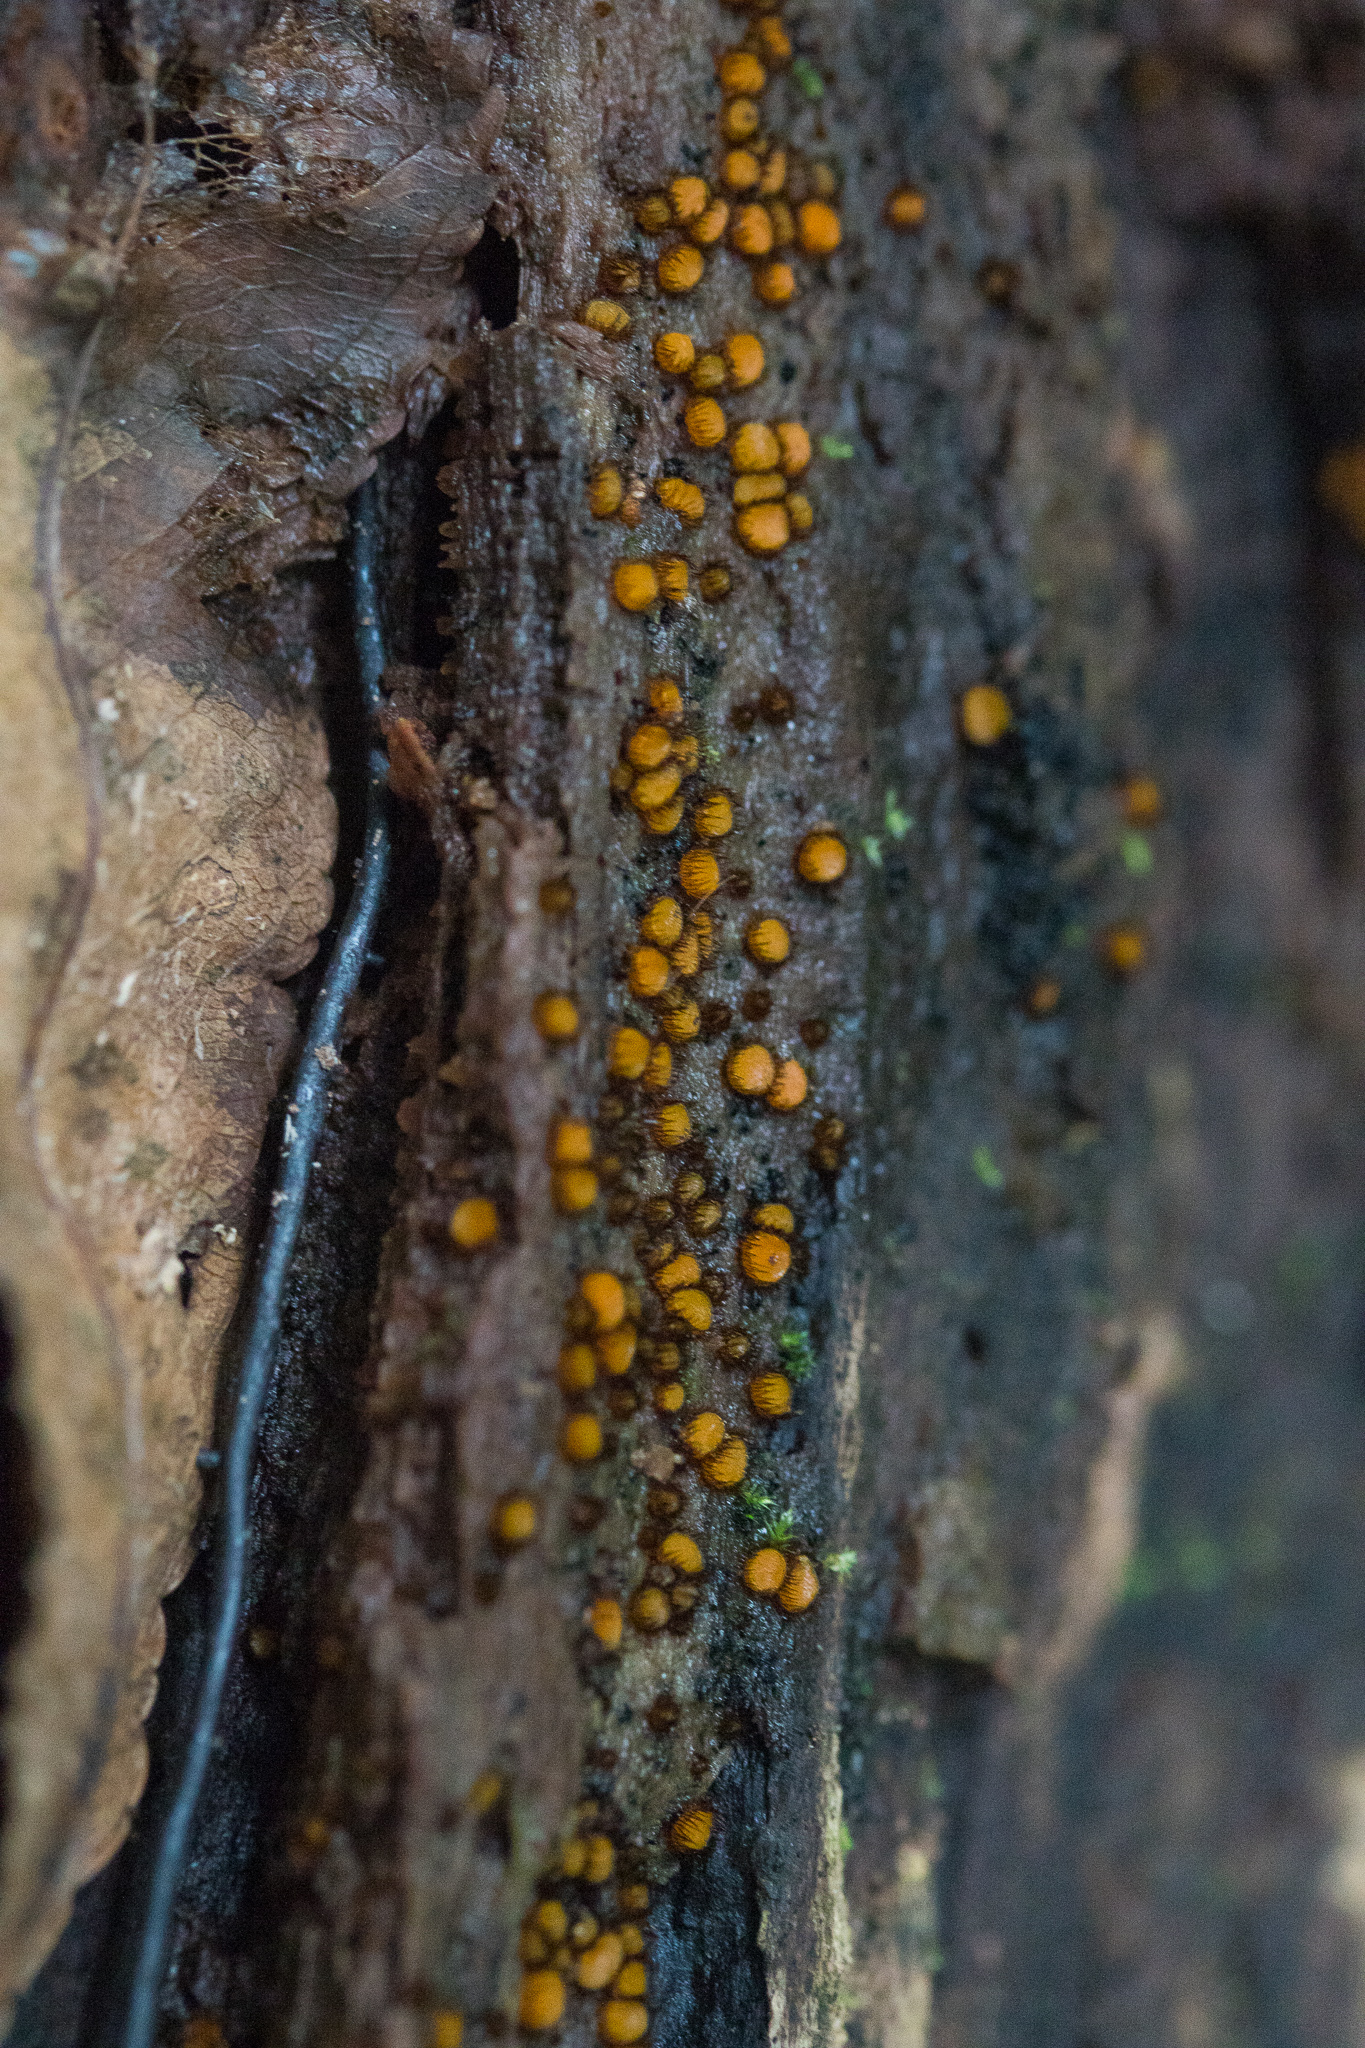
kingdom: Fungi
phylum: Ascomycota
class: Pezizomycetes
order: Pezizales
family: Pyronemataceae
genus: Scutellinia
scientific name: Scutellinia setosa
